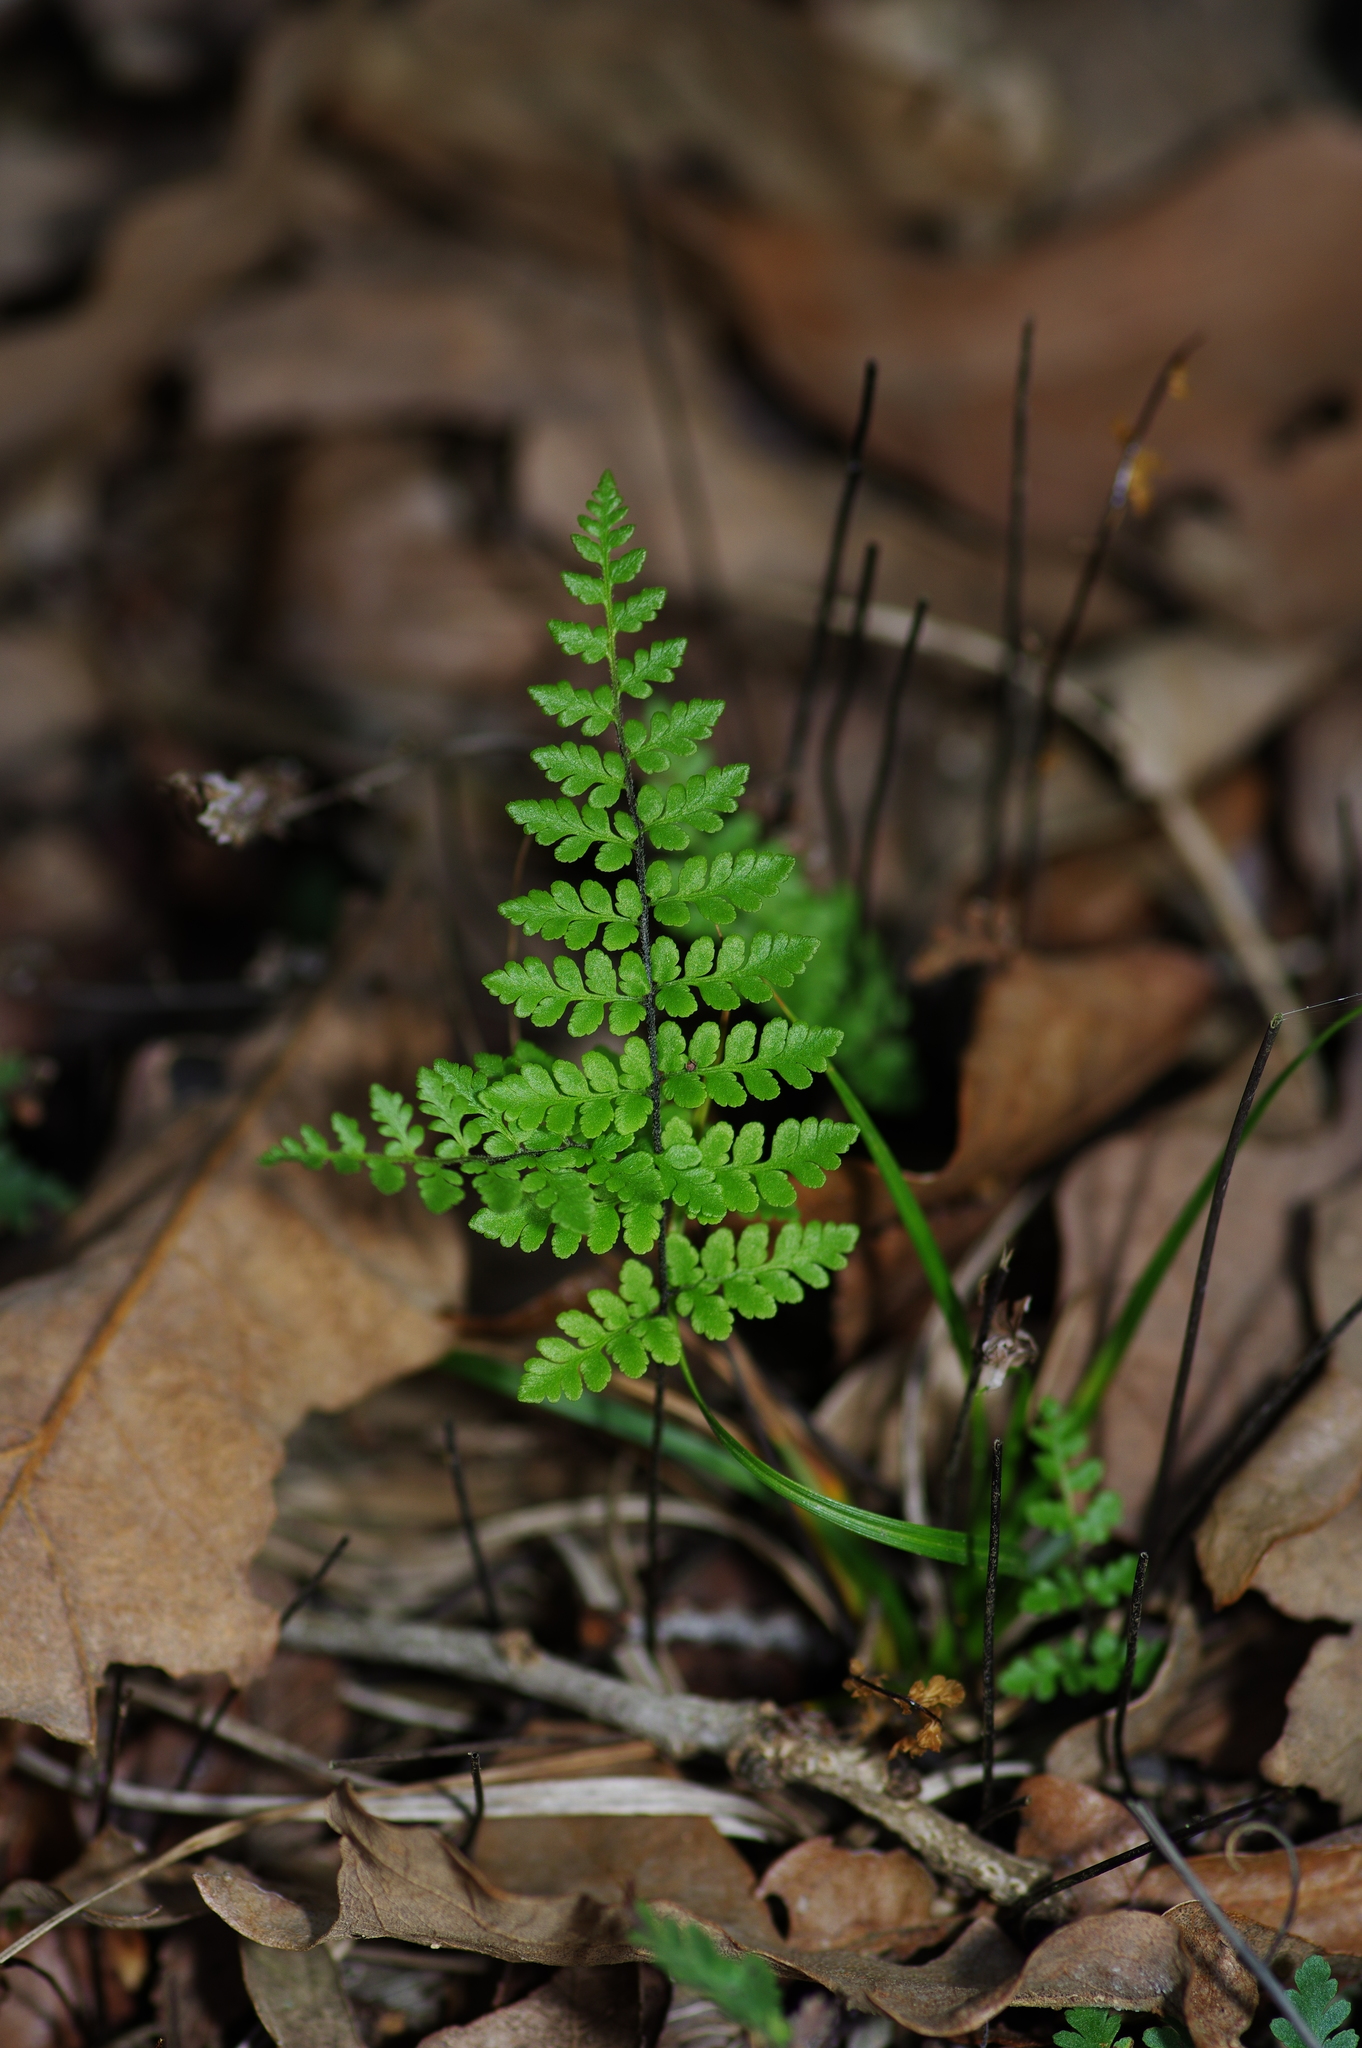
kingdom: Plantae
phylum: Tracheophyta
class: Polypodiopsida
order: Polypodiales
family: Pteridaceae
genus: Myriopteris
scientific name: Myriopteris alabamensis
